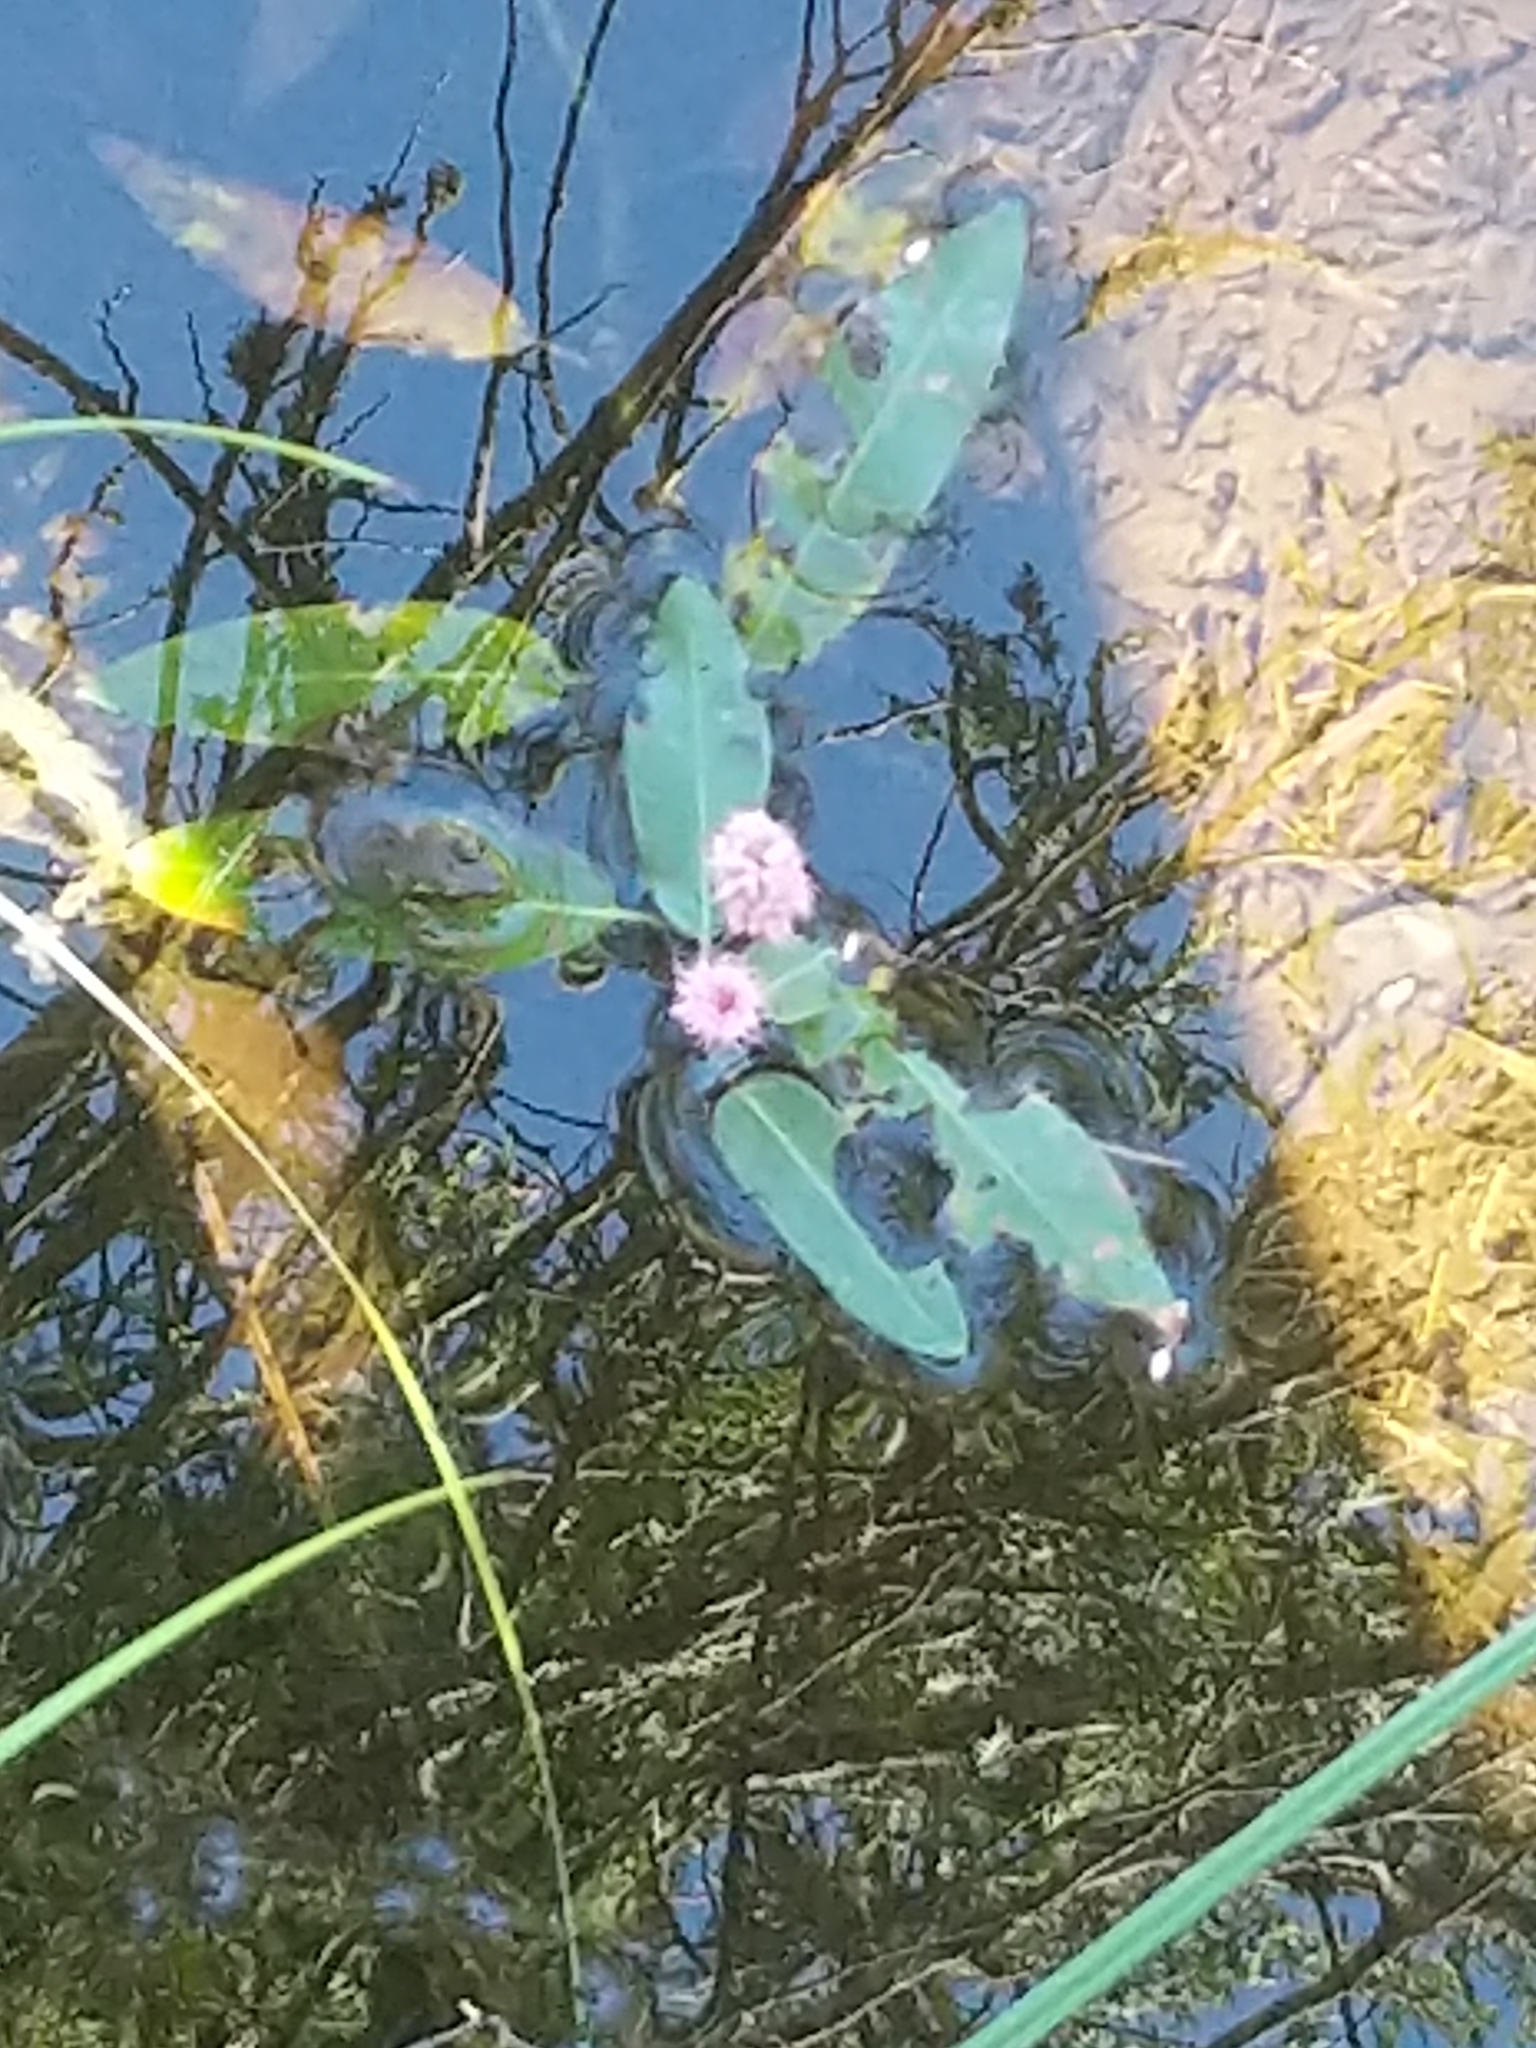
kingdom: Plantae
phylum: Tracheophyta
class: Magnoliopsida
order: Caryophyllales
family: Polygonaceae
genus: Persicaria
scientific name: Persicaria amphibia
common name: Amphibious bistort
